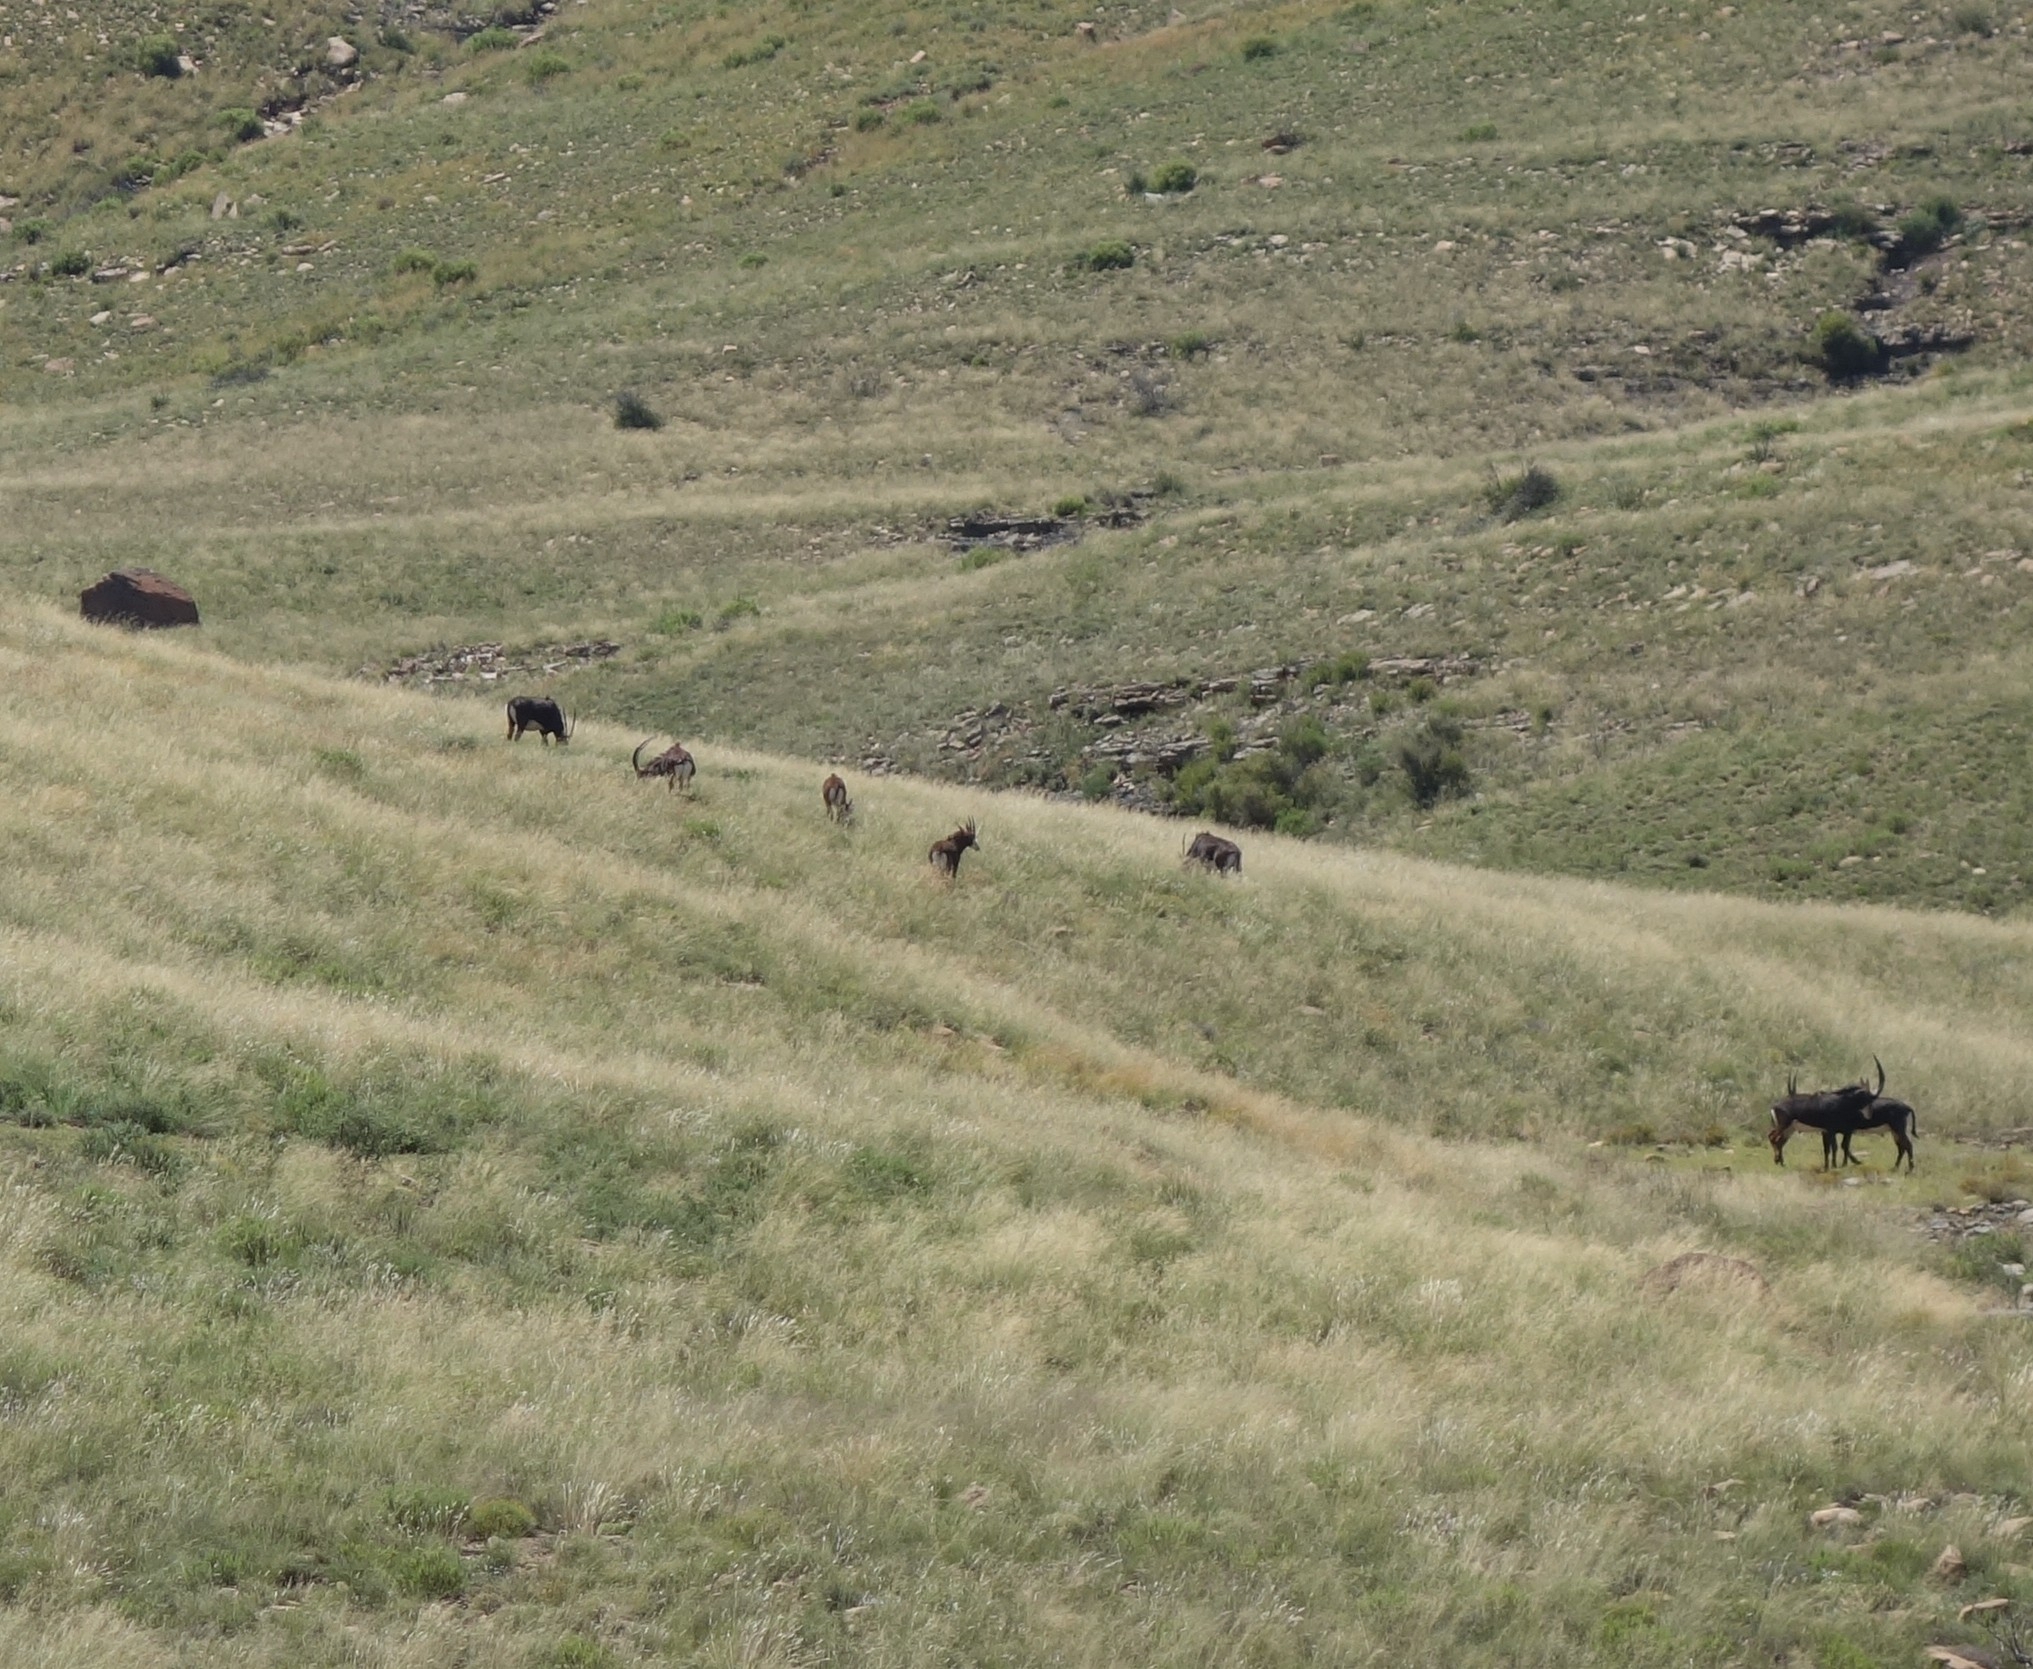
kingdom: Animalia
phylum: Chordata
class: Mammalia
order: Artiodactyla
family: Bovidae
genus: Hippotragus
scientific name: Hippotragus niger
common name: Sable antelope
